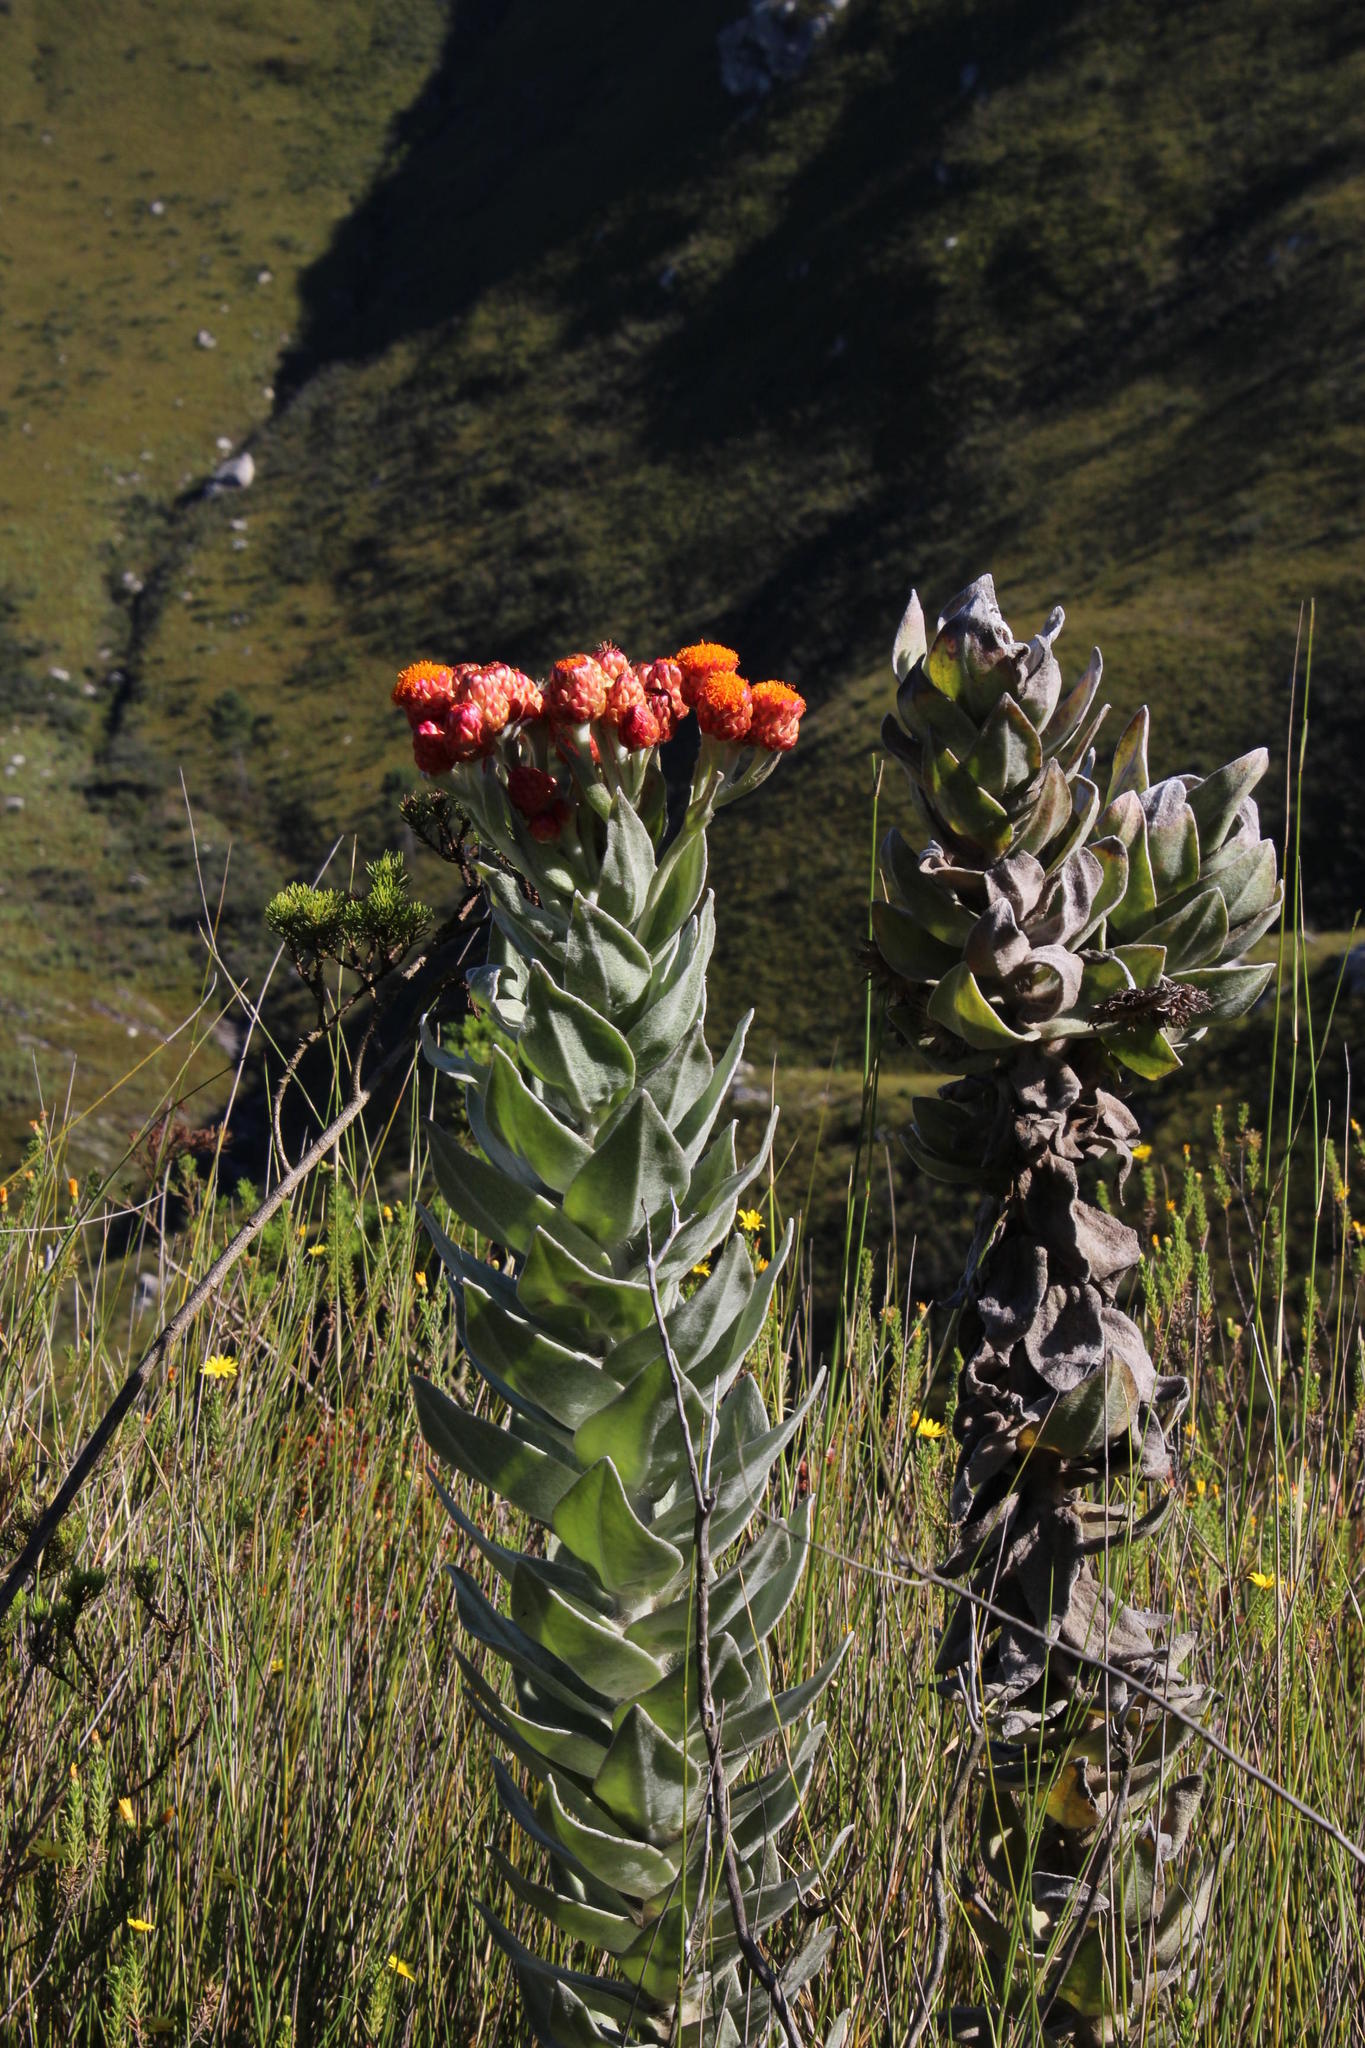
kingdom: Plantae
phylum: Tracheophyta
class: Magnoliopsida
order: Asterales
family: Asteraceae
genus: Syncarpha
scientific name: Syncarpha eximia
